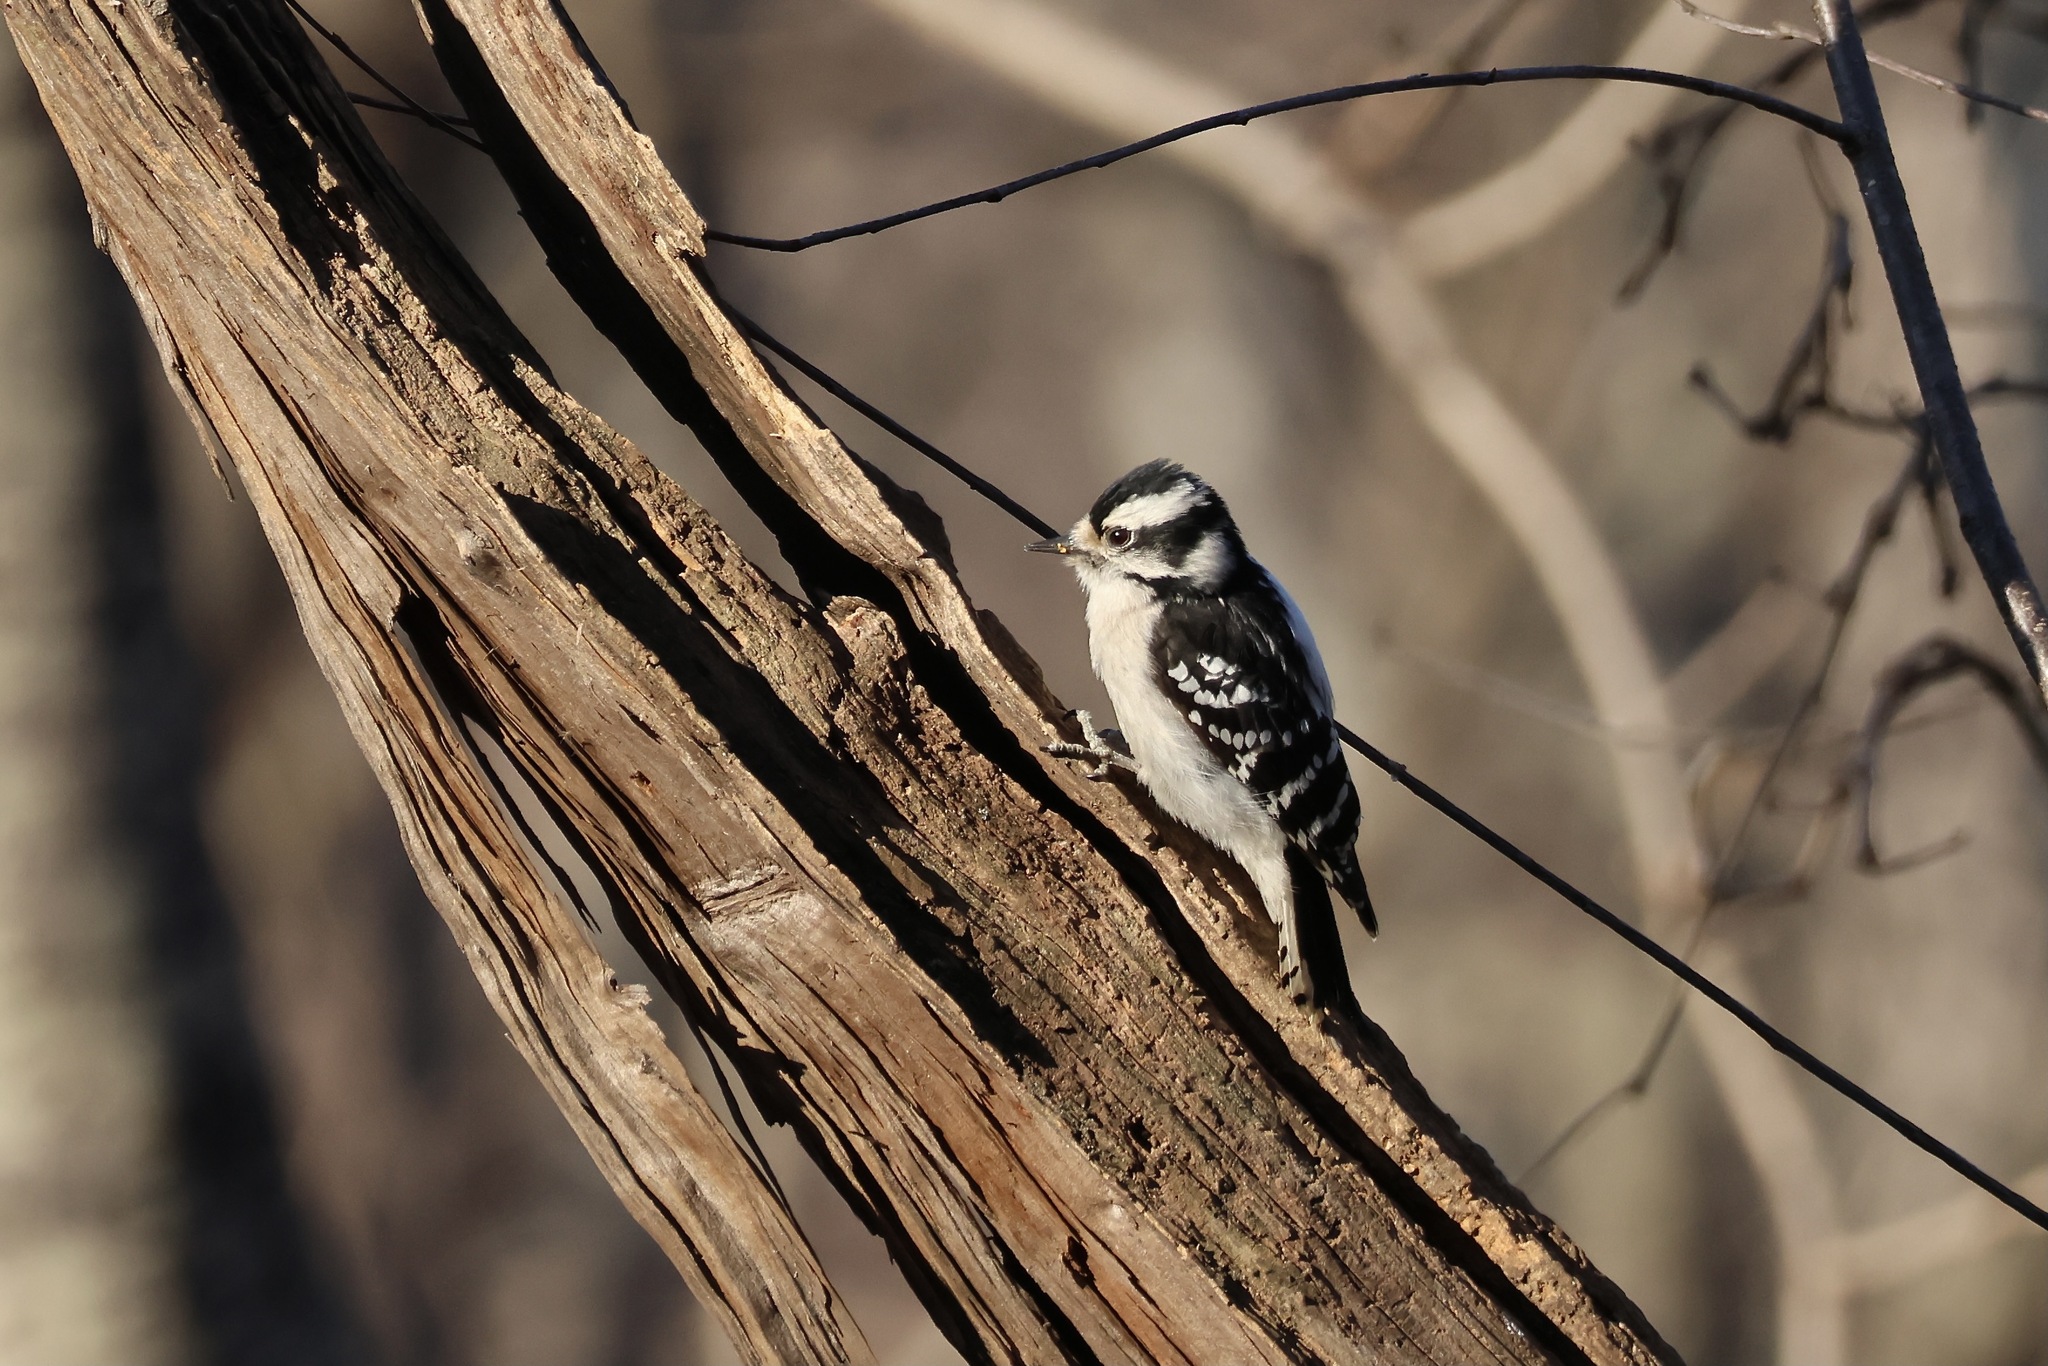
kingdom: Animalia
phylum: Chordata
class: Aves
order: Piciformes
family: Picidae
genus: Dryobates
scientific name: Dryobates pubescens
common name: Downy woodpecker
